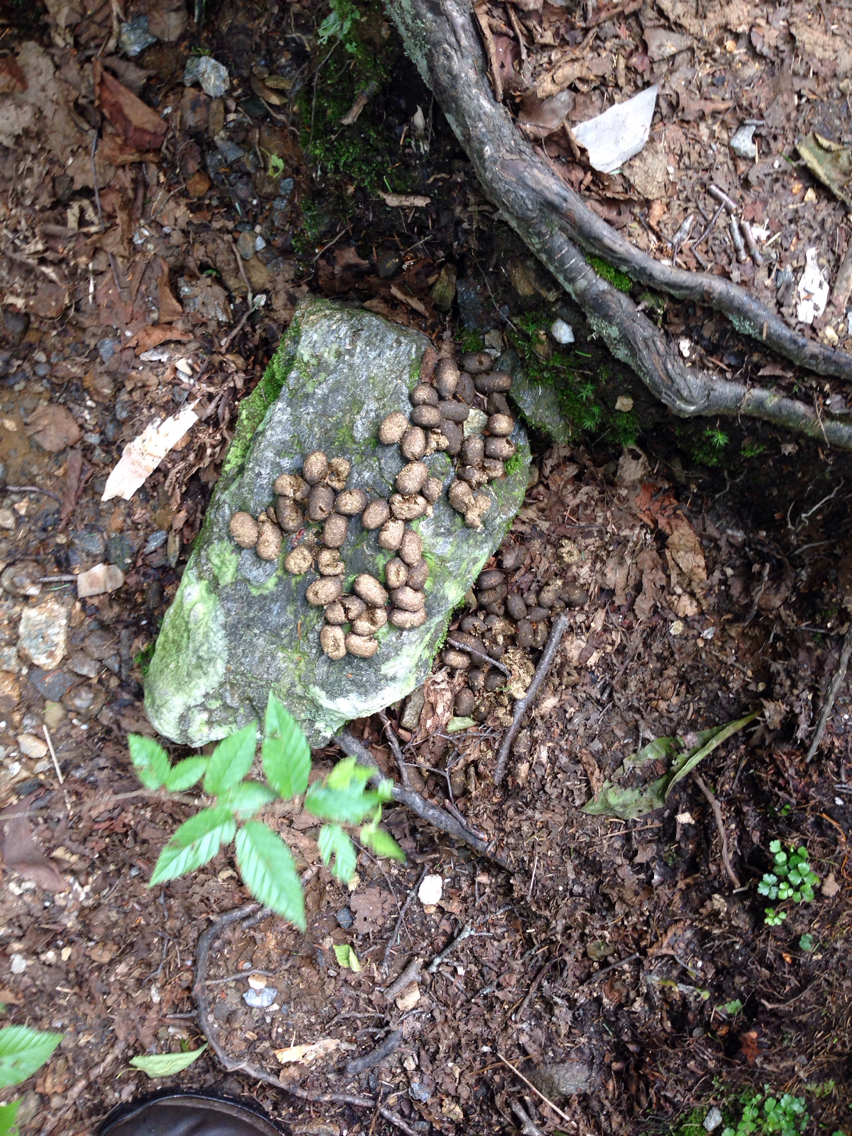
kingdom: Animalia
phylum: Chordata
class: Mammalia
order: Artiodactyla
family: Cervidae
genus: Alces
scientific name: Alces alces
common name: Moose
